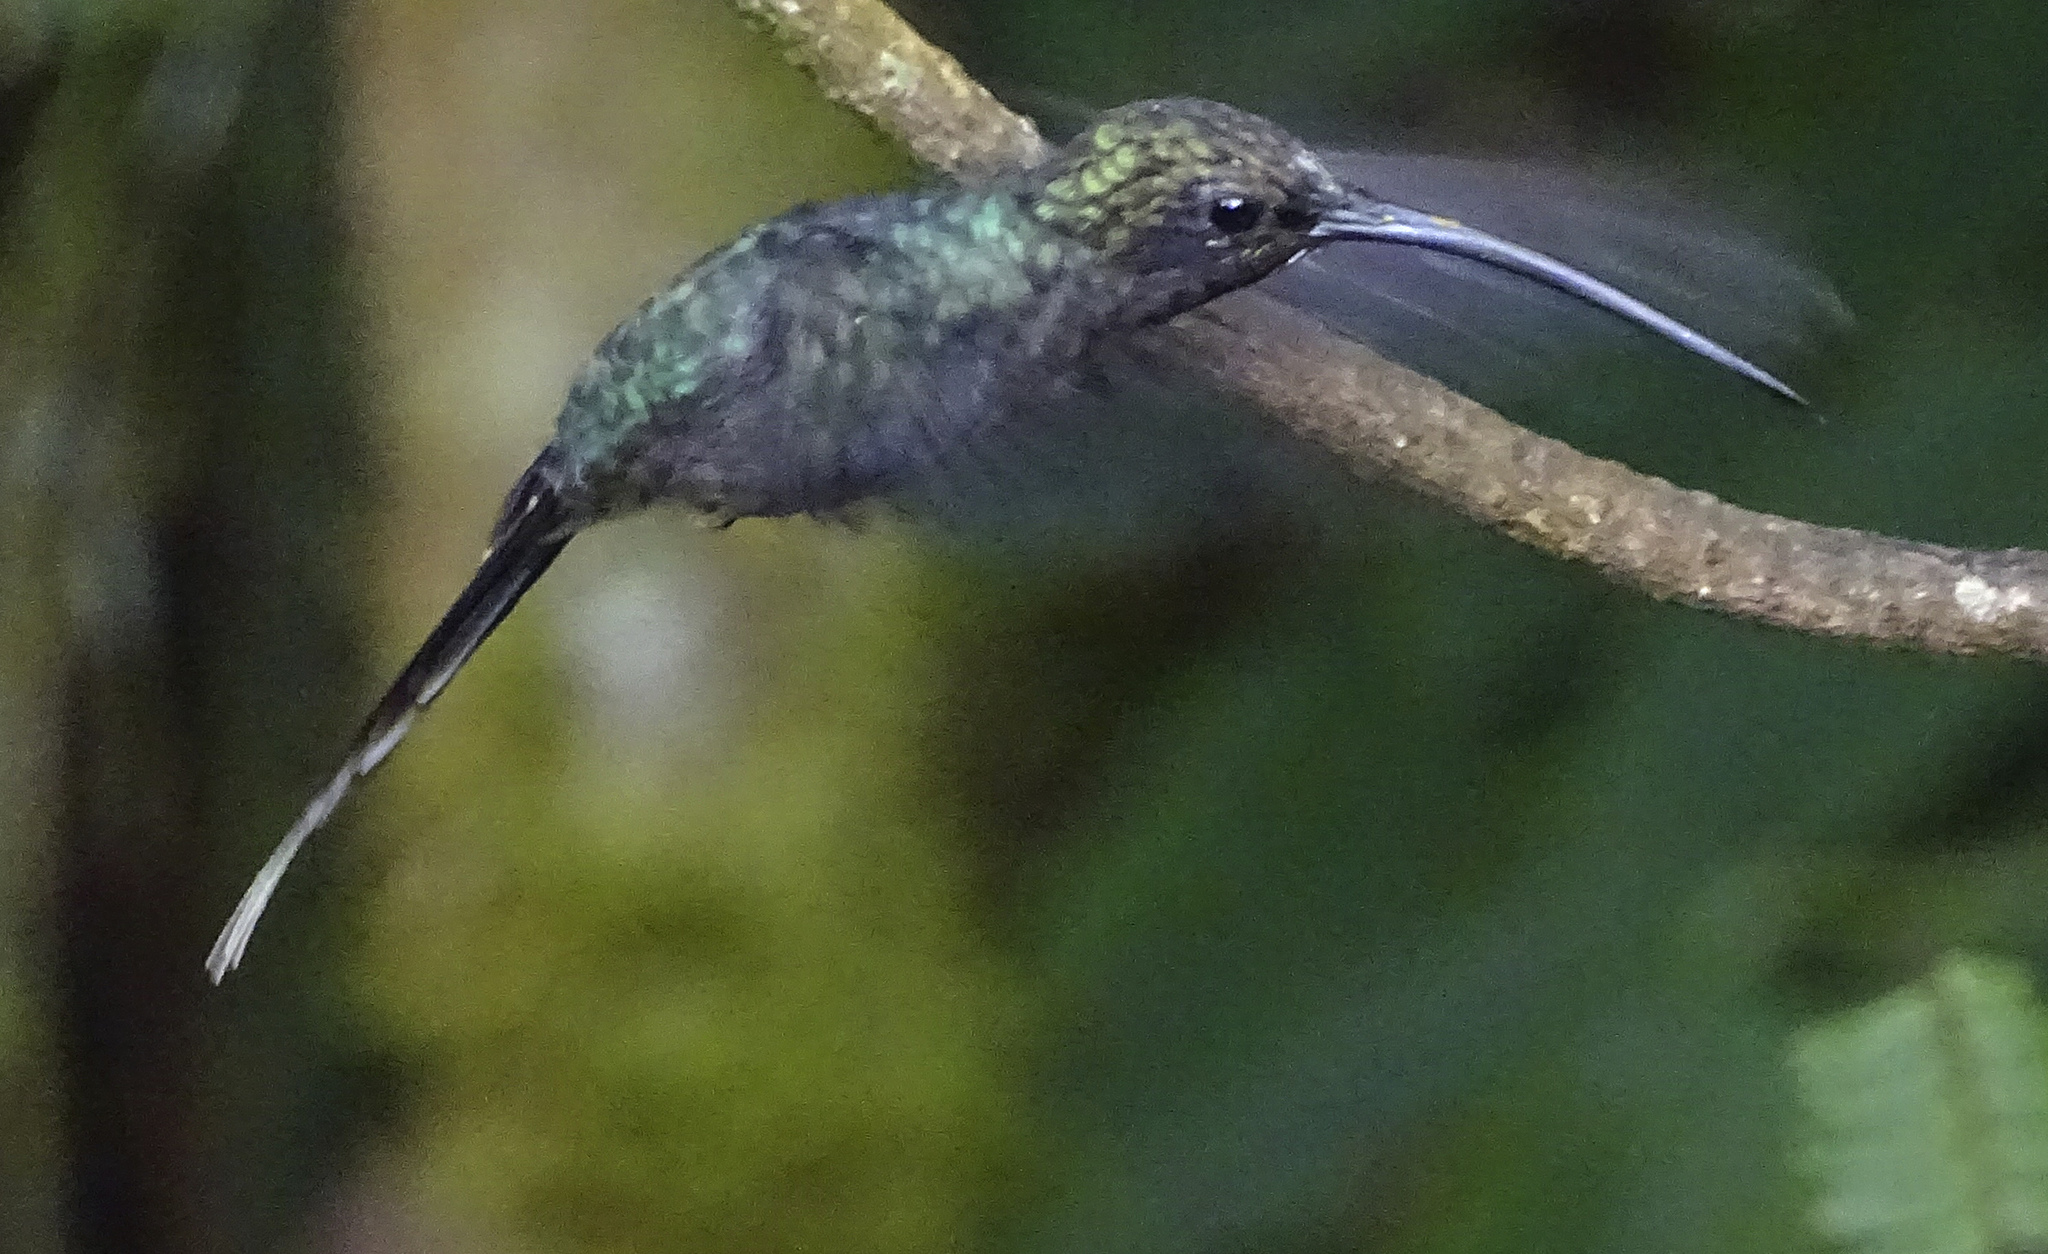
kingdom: Animalia
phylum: Chordata
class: Aves
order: Apodiformes
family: Trochilidae
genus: Phaethornis
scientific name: Phaethornis guy
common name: Green hermit
